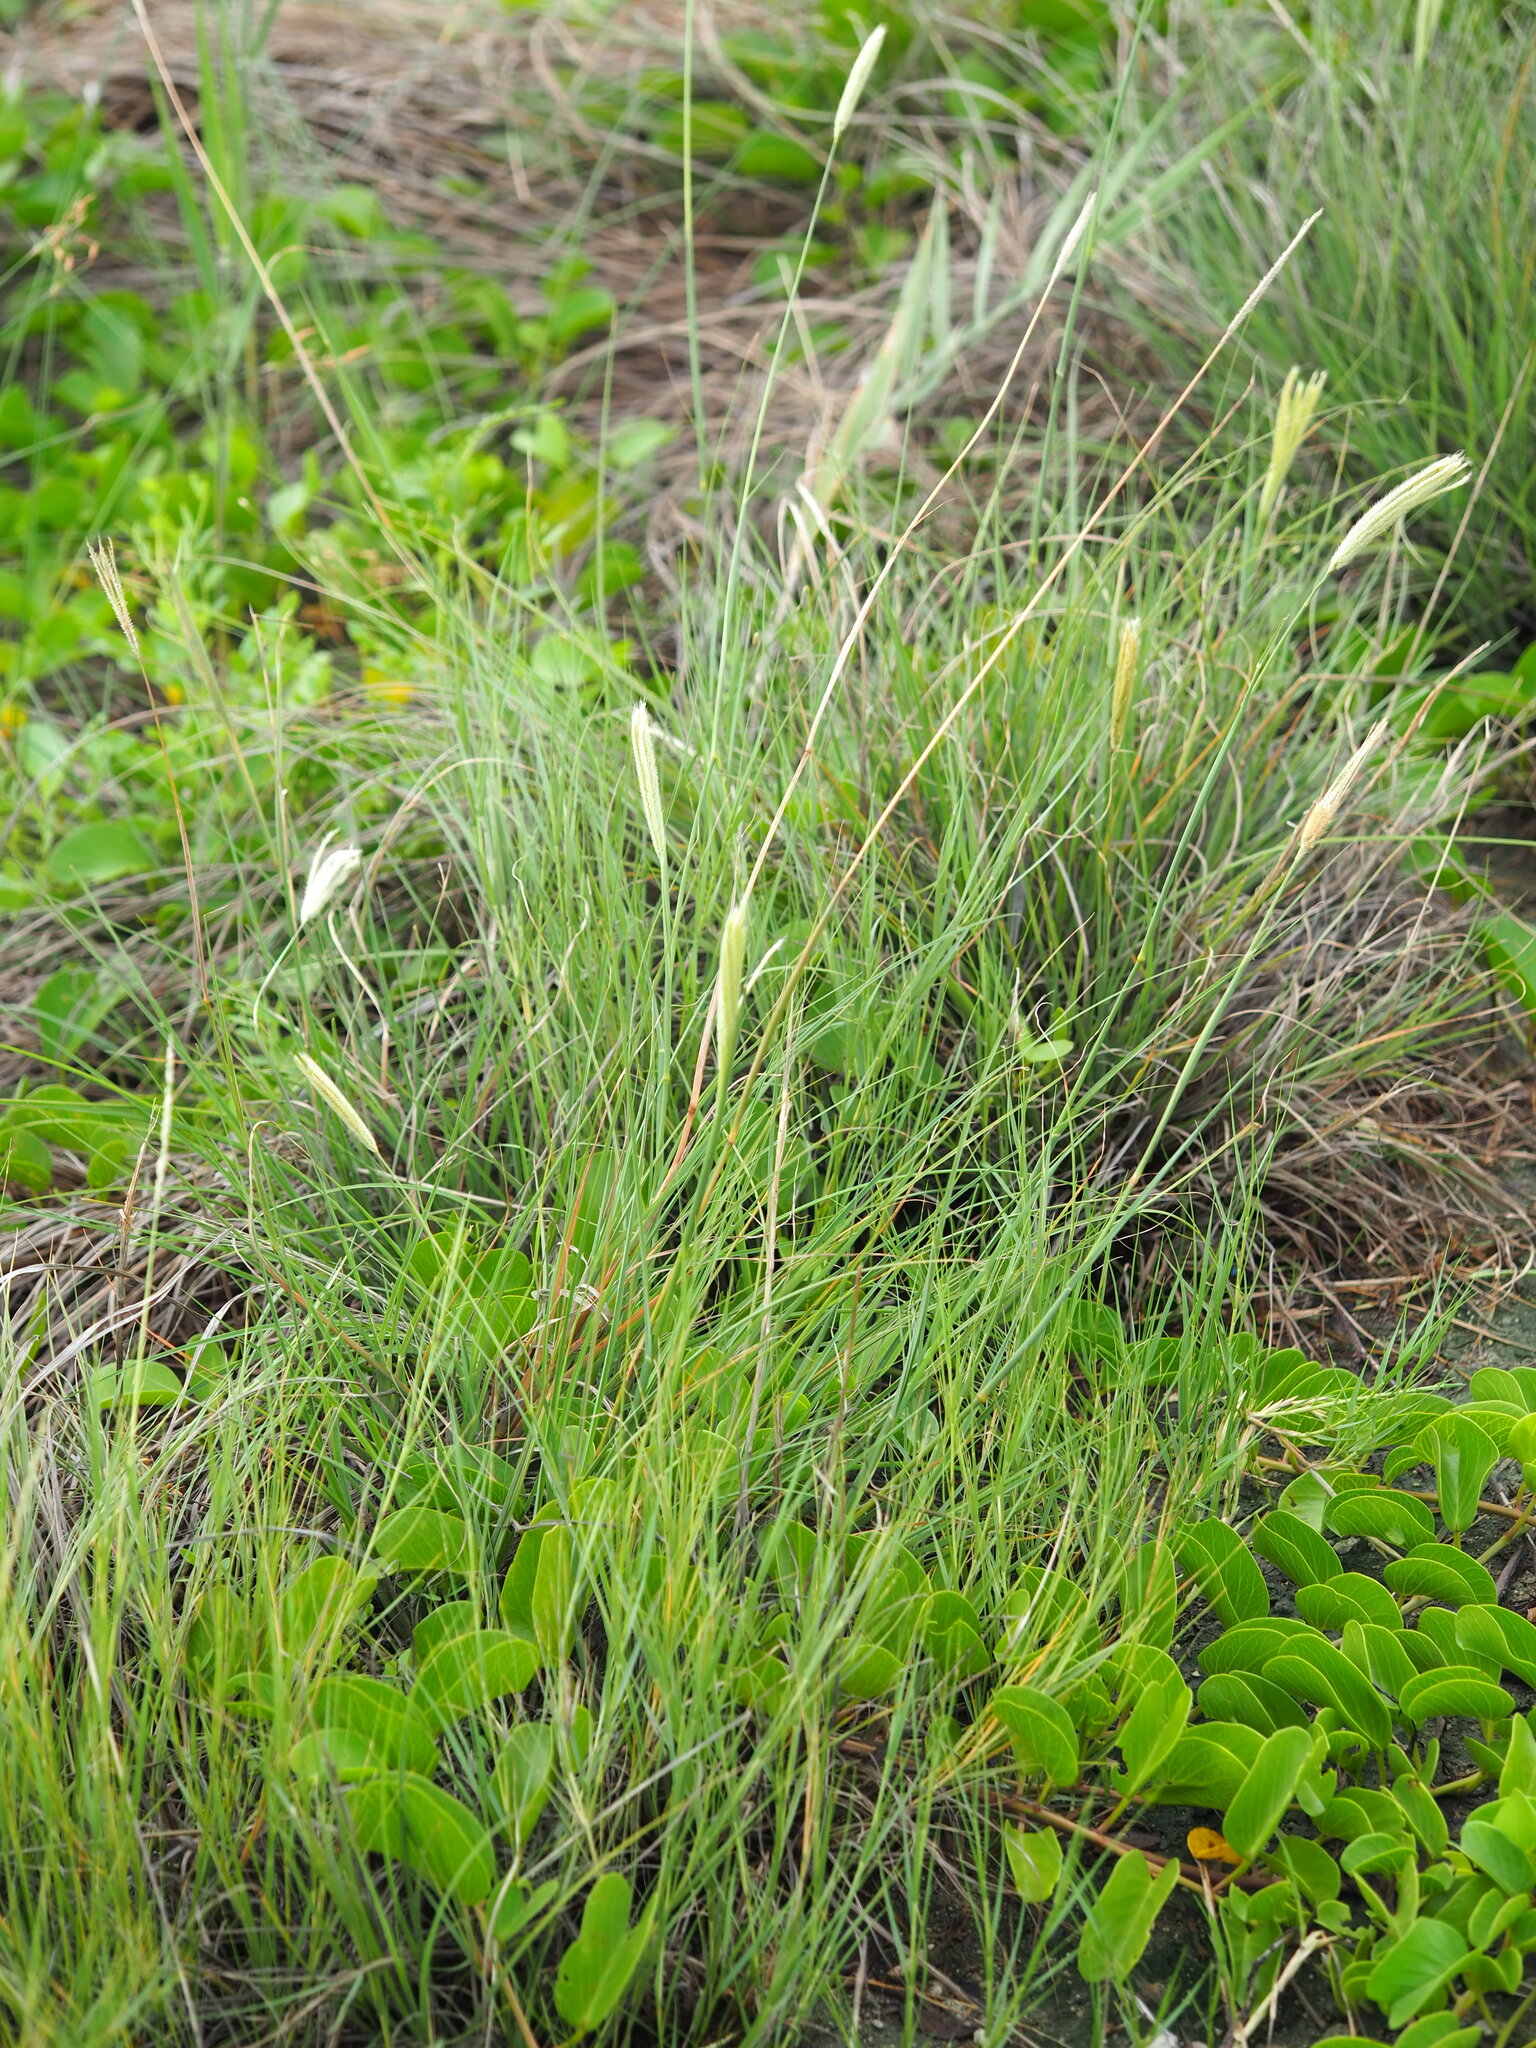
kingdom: Plantae
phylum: Tracheophyta
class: Liliopsida
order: Poales
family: Poaceae
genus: Chloris
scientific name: Chloris formosana
